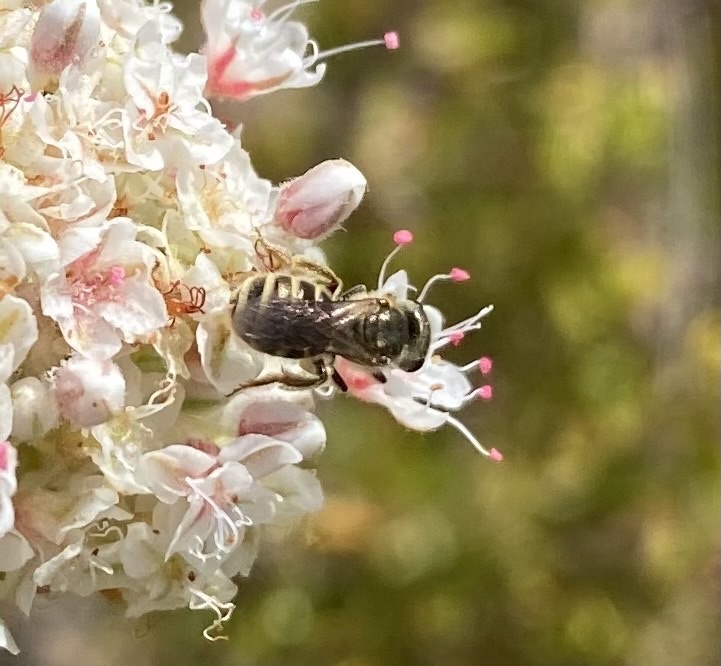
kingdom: Animalia
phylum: Arthropoda
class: Insecta
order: Hymenoptera
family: Halictidae
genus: Halictus
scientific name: Halictus tripartitus
